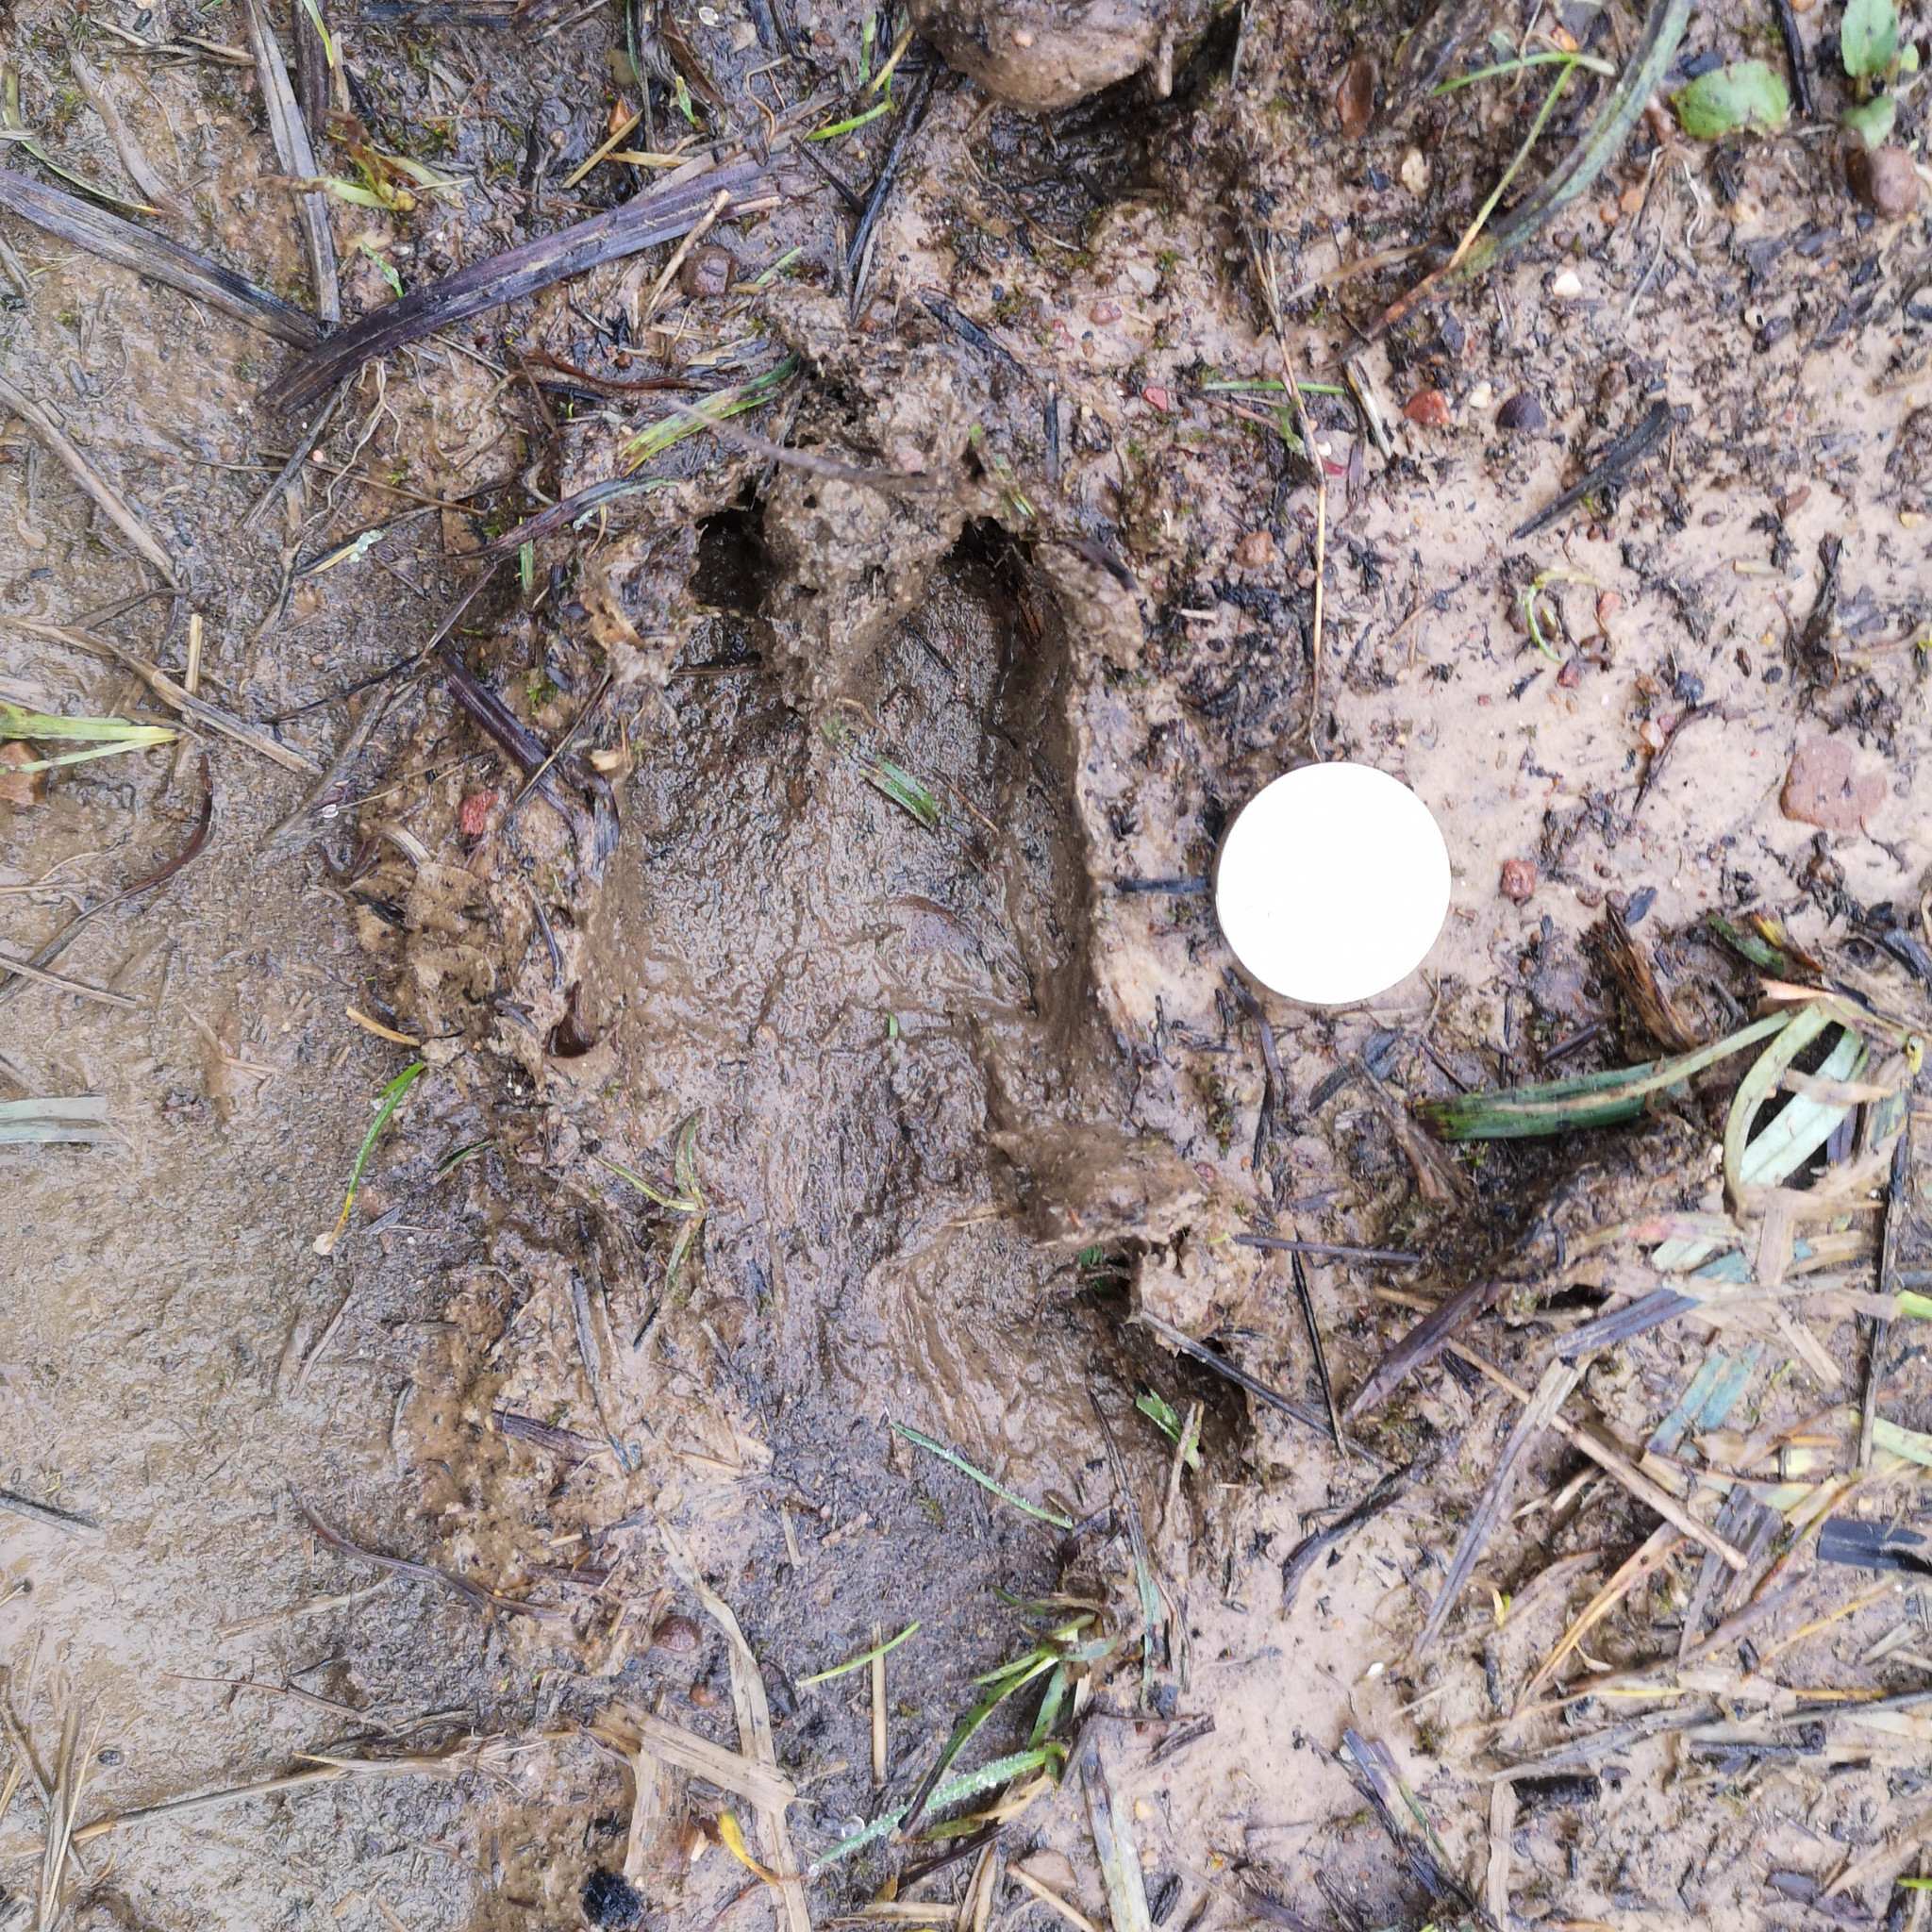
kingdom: Animalia
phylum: Chordata
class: Mammalia
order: Artiodactyla
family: Cervidae
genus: Capreolus
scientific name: Capreolus capreolus
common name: Western roe deer
